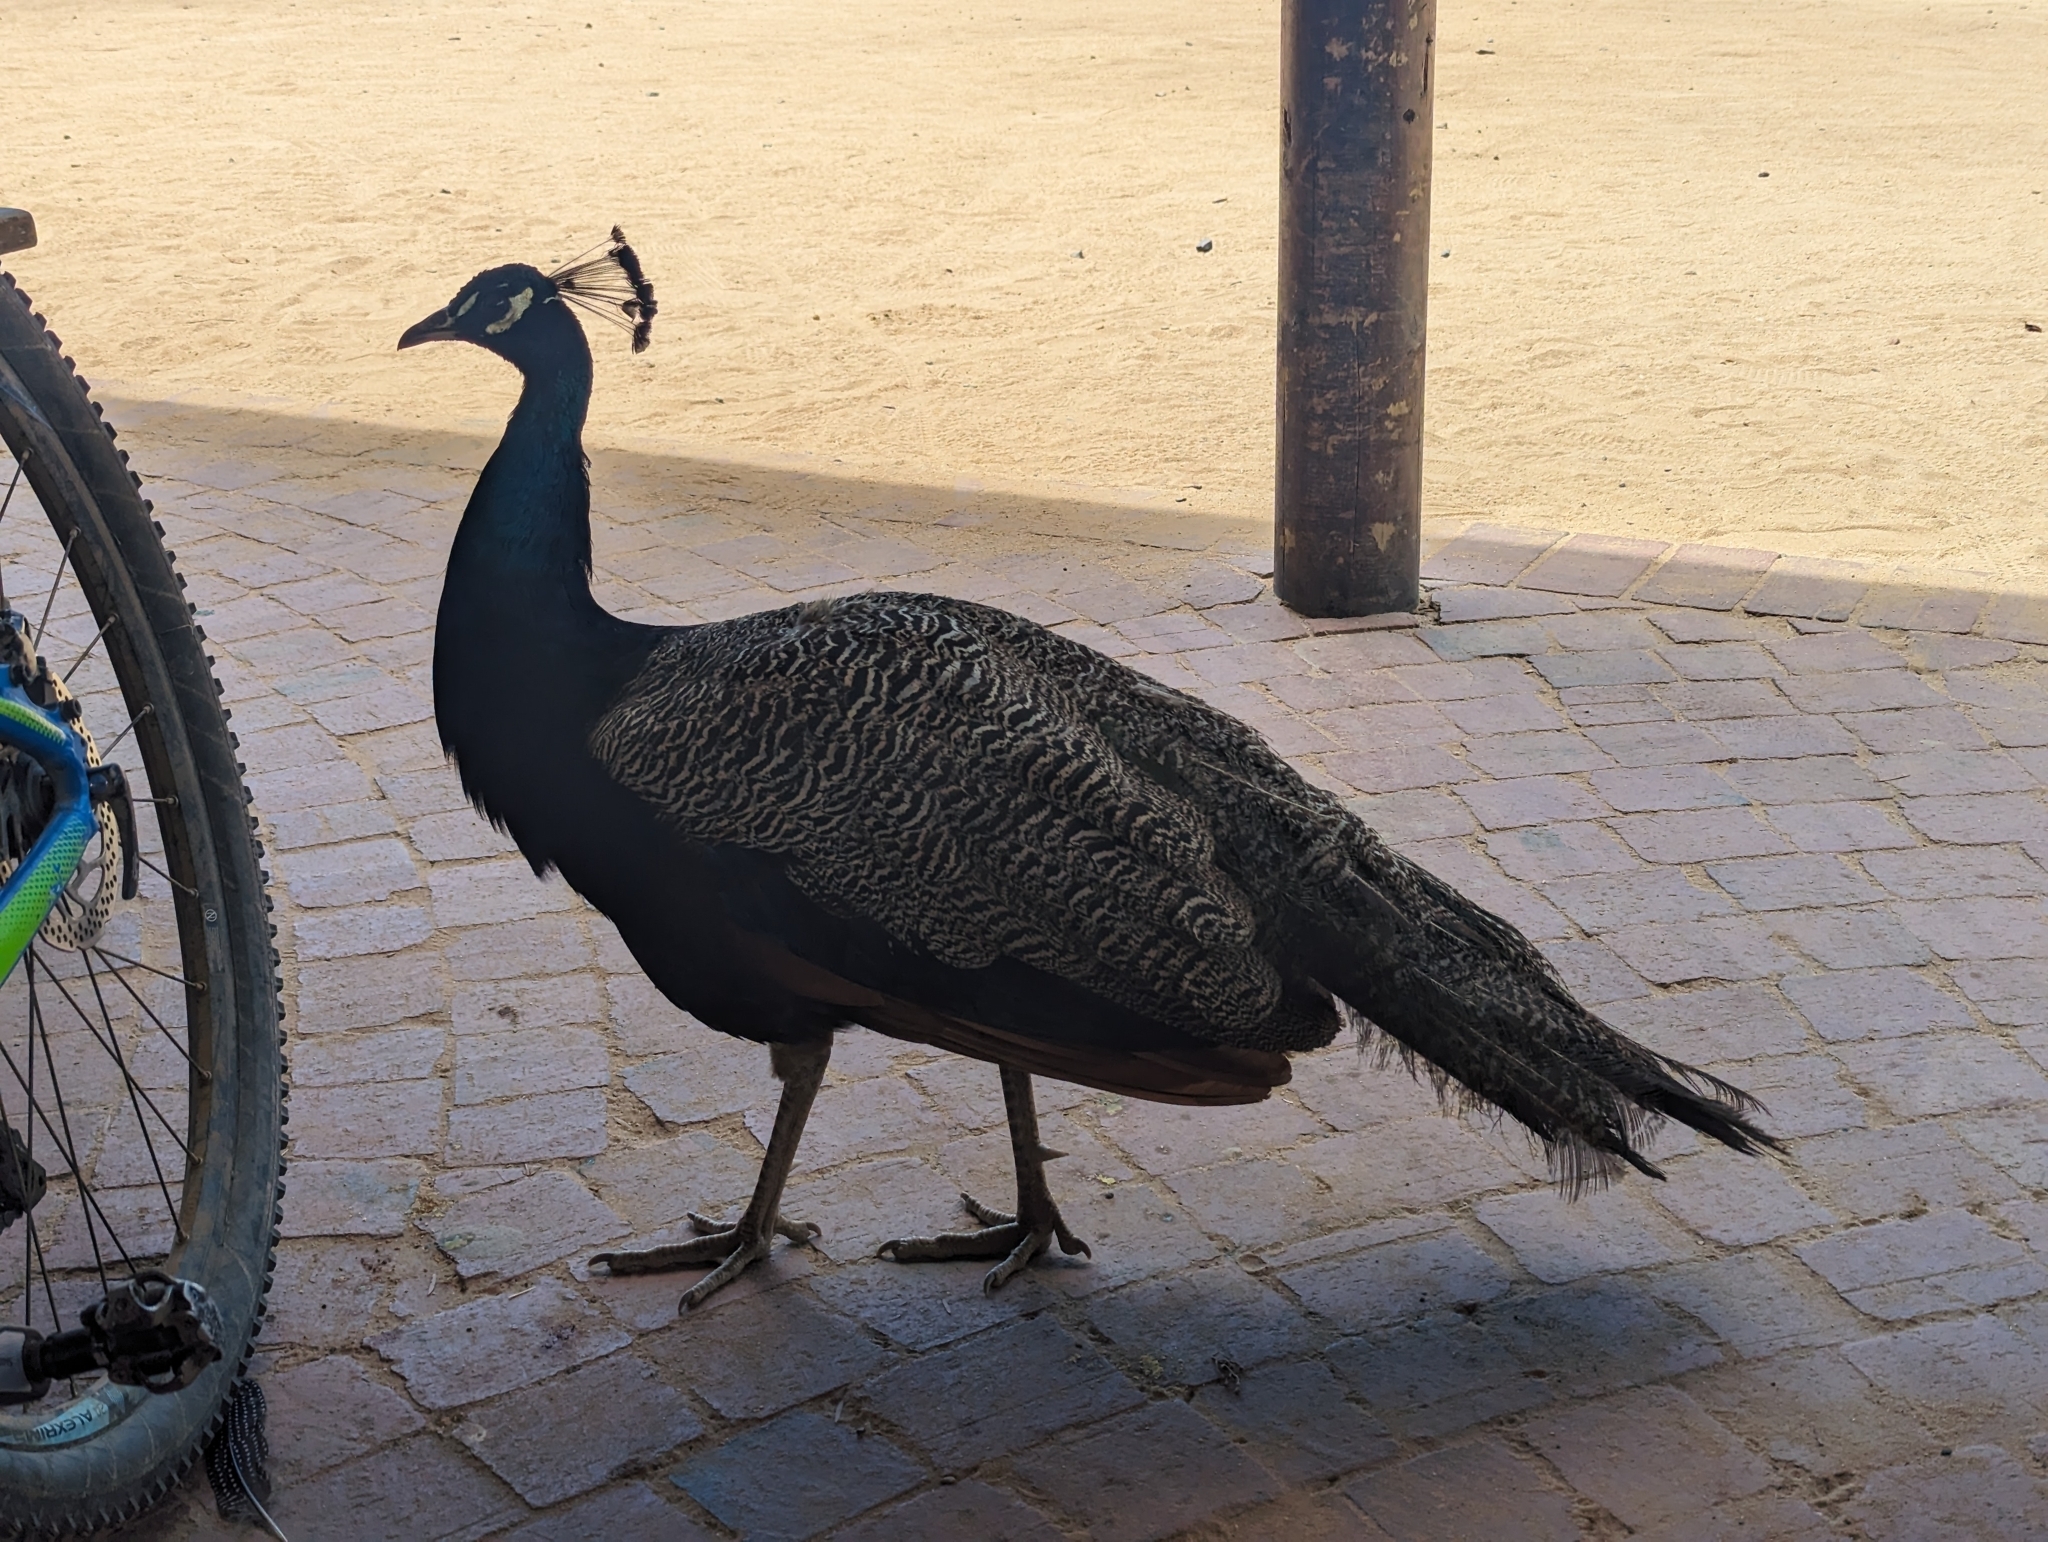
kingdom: Animalia
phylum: Chordata
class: Aves
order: Galliformes
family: Phasianidae
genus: Pavo
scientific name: Pavo cristatus
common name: Indian peafowl
